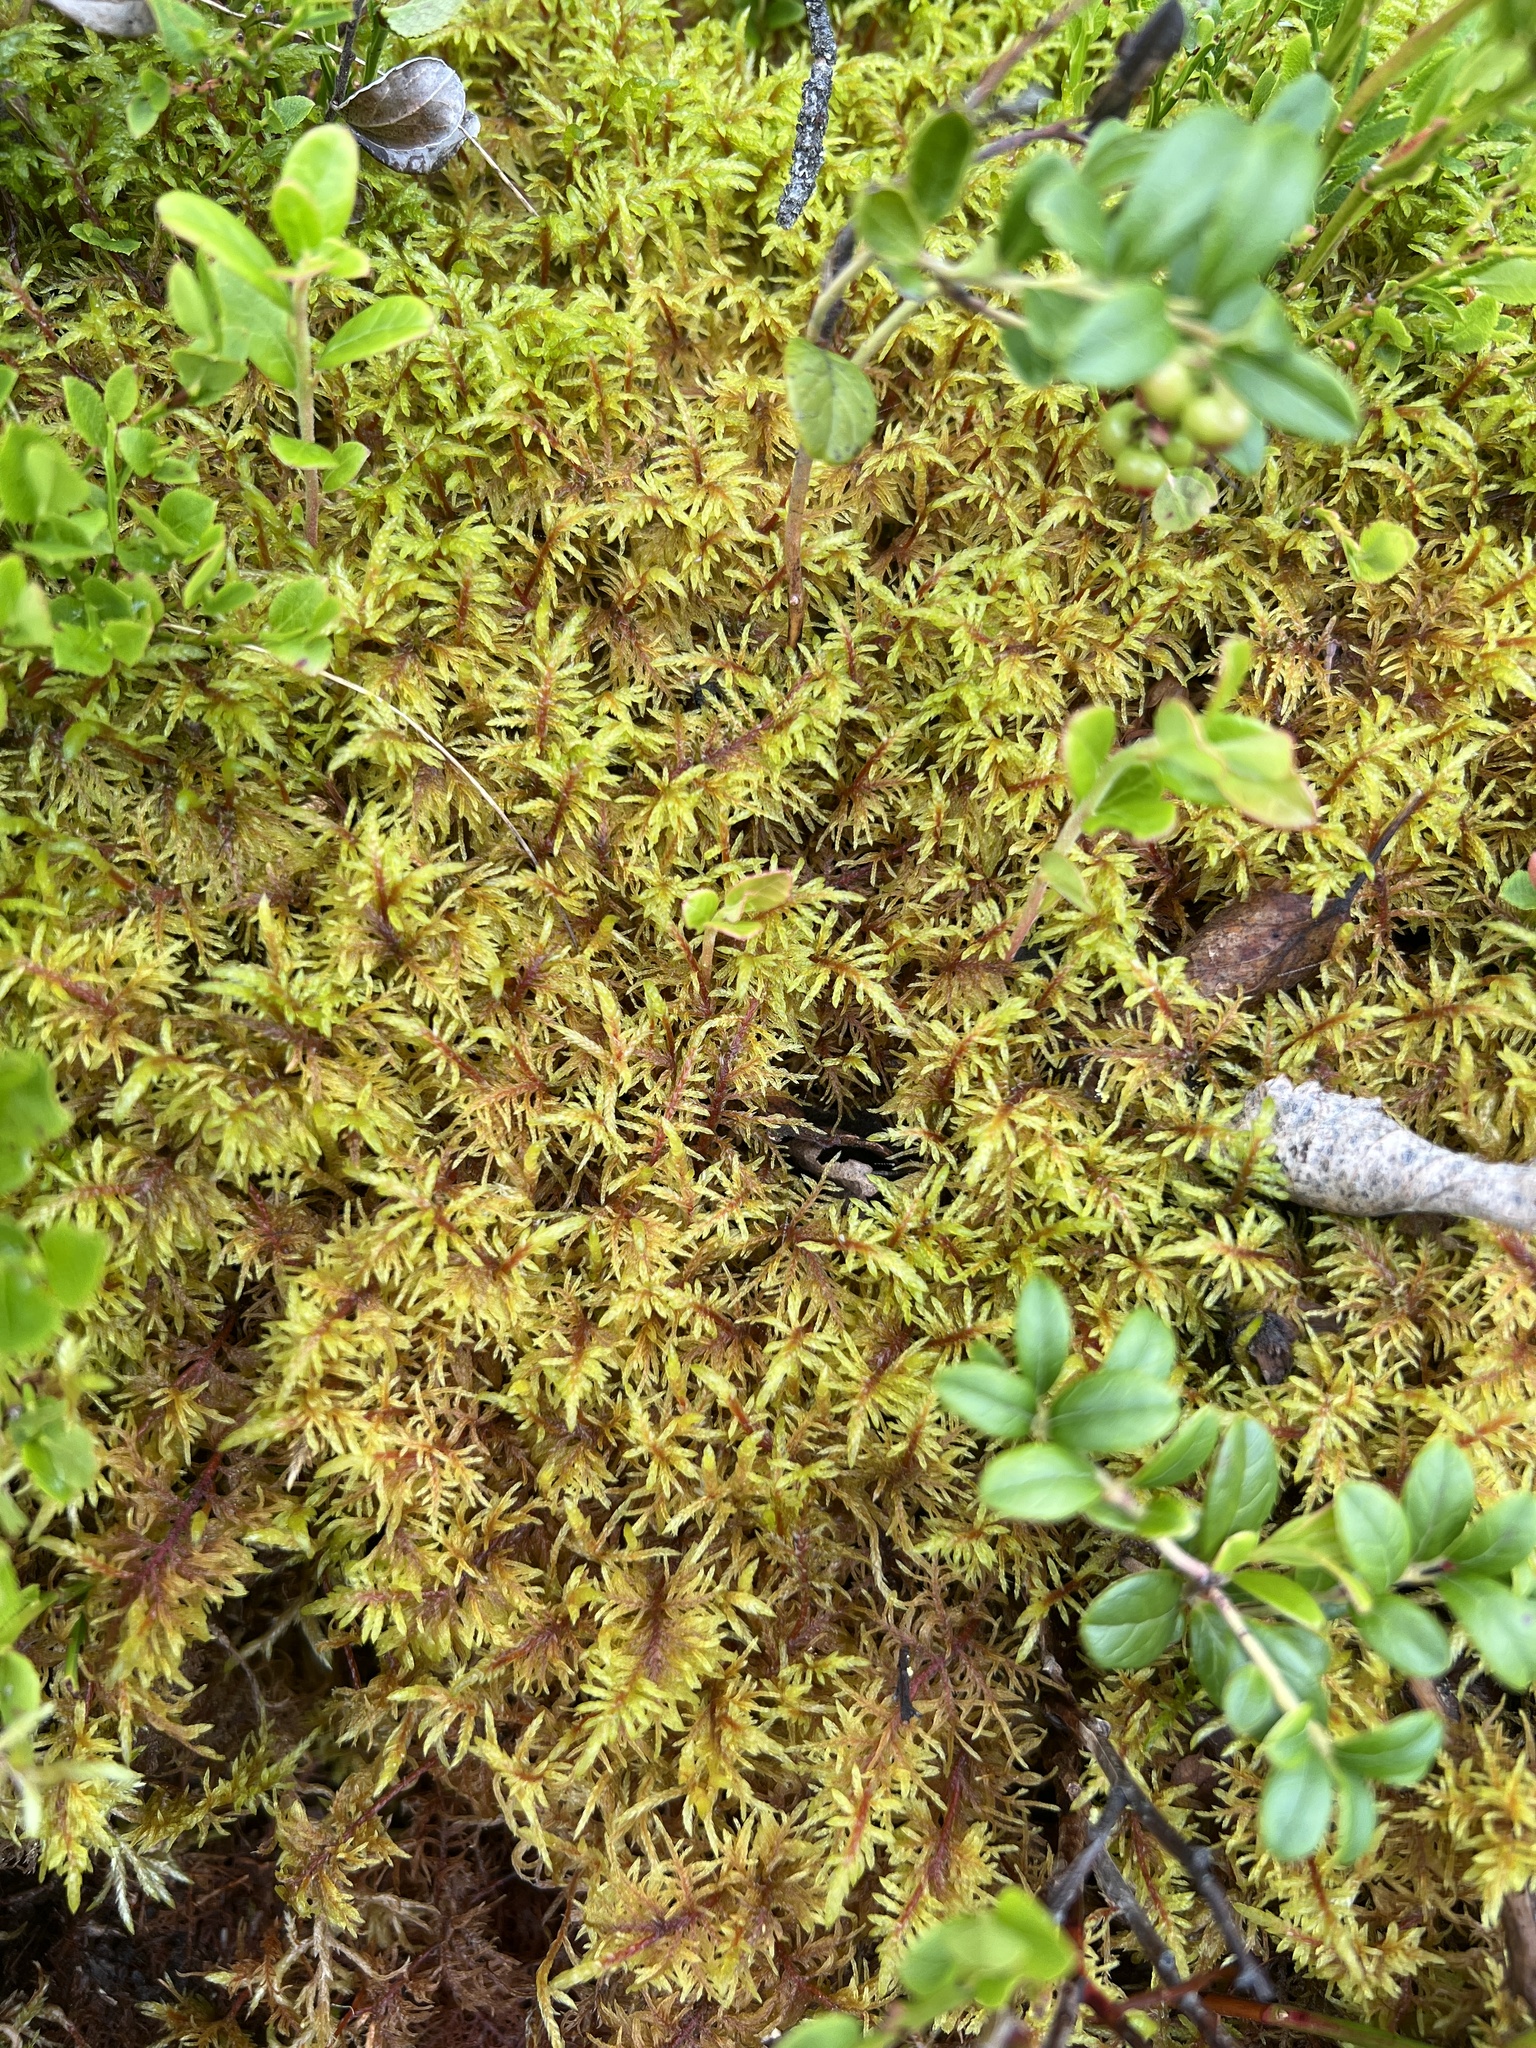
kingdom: Plantae
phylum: Bryophyta
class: Bryopsida
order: Hypnales
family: Hylocomiaceae
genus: Hylocomium
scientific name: Hylocomium splendens
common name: Stairstep moss
